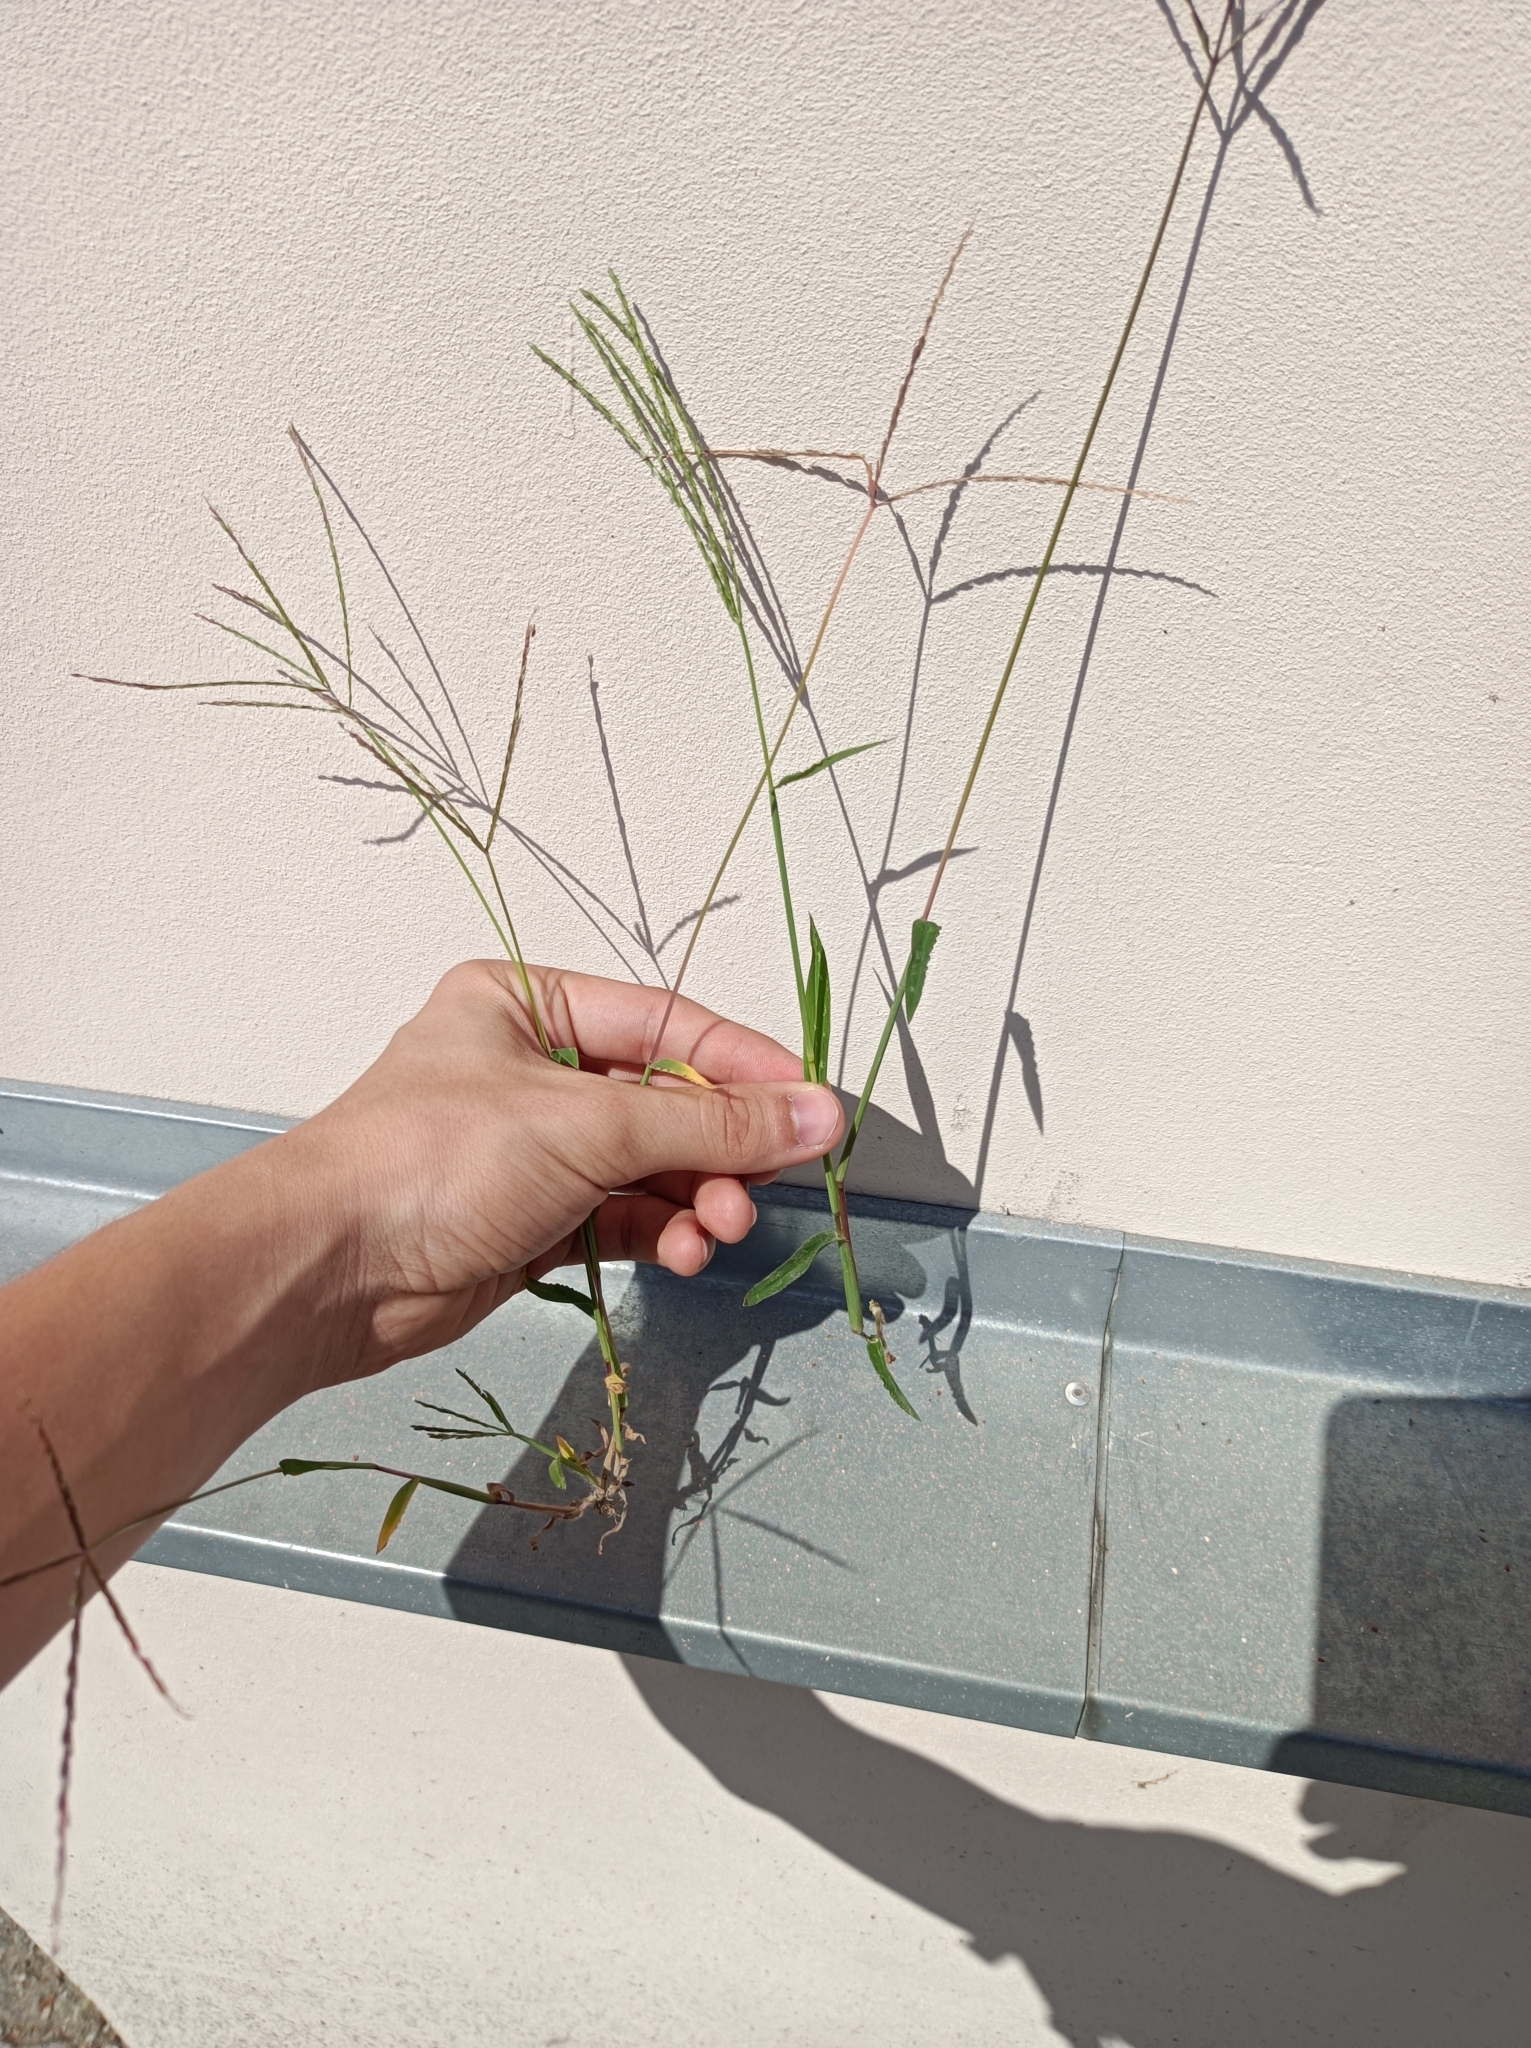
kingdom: Plantae
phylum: Tracheophyta
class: Liliopsida
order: Poales
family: Poaceae
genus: Digitaria
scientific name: Digitaria sanguinalis
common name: Hairy crabgrass
